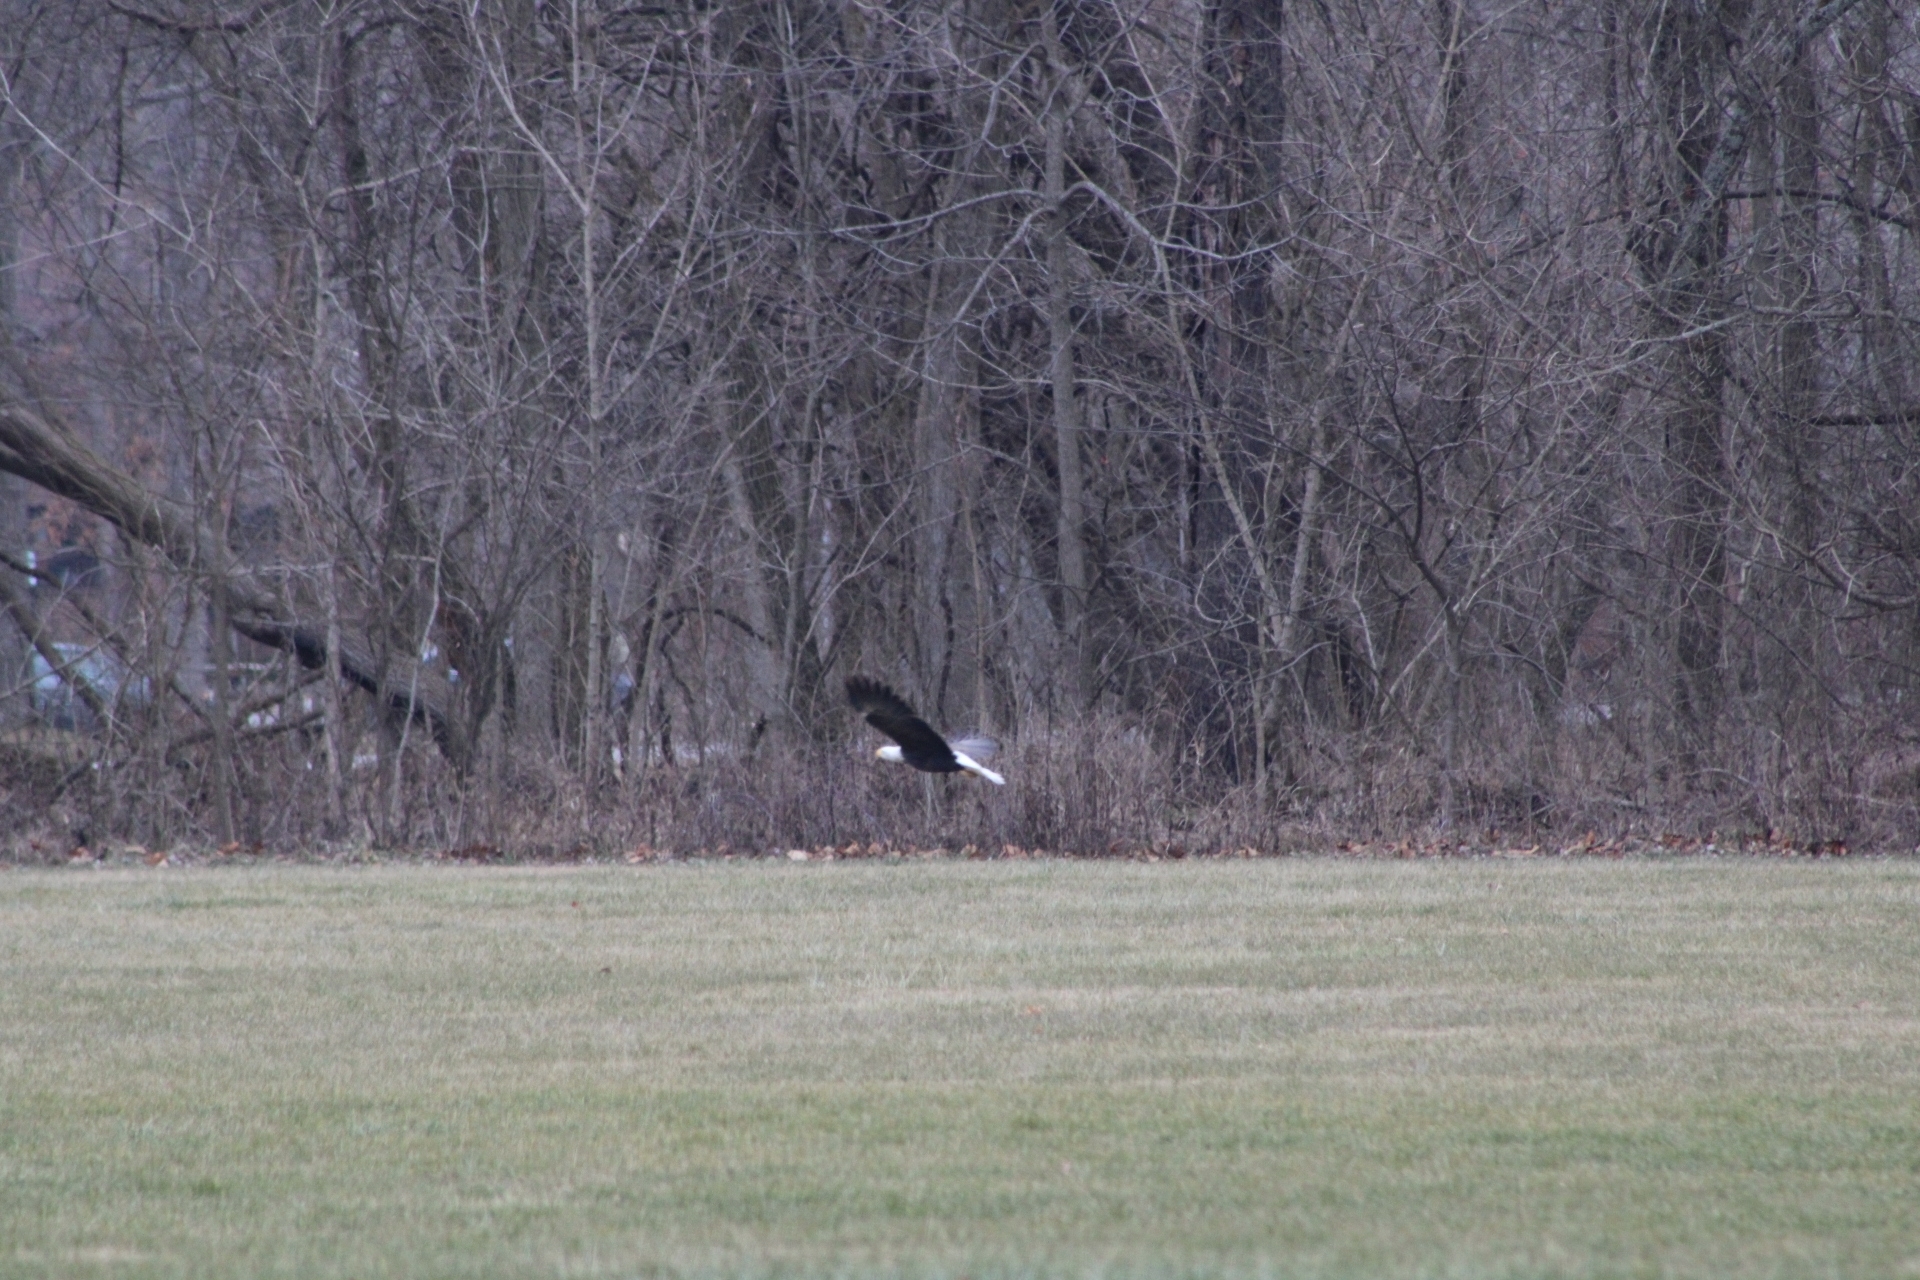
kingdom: Animalia
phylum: Chordata
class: Aves
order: Accipitriformes
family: Accipitridae
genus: Haliaeetus
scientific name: Haliaeetus leucocephalus
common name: Bald eagle
